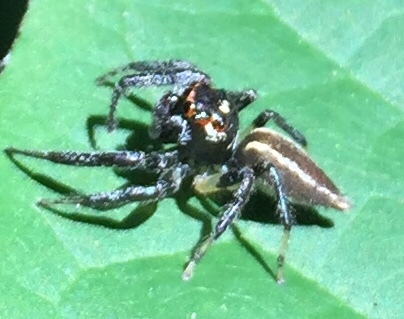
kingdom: Animalia
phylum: Arthropoda
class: Arachnida
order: Araneae
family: Salticidae
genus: Colonus
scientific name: Colonus sylvanus
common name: Jumping spiders
